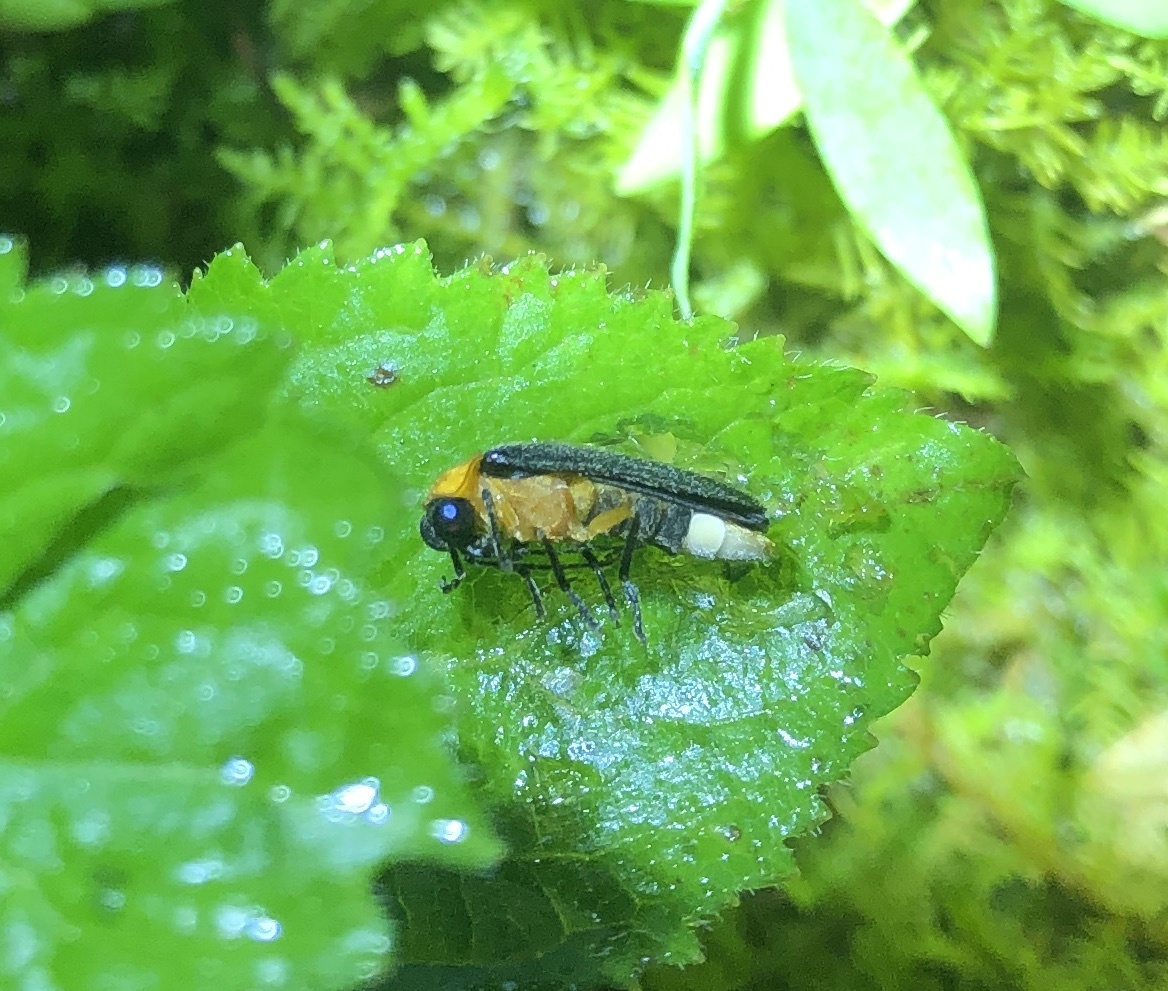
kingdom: Animalia
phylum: Arthropoda
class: Insecta
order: Coleoptera
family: Lampyridae
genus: Abscondita
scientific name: Abscondita cerata
